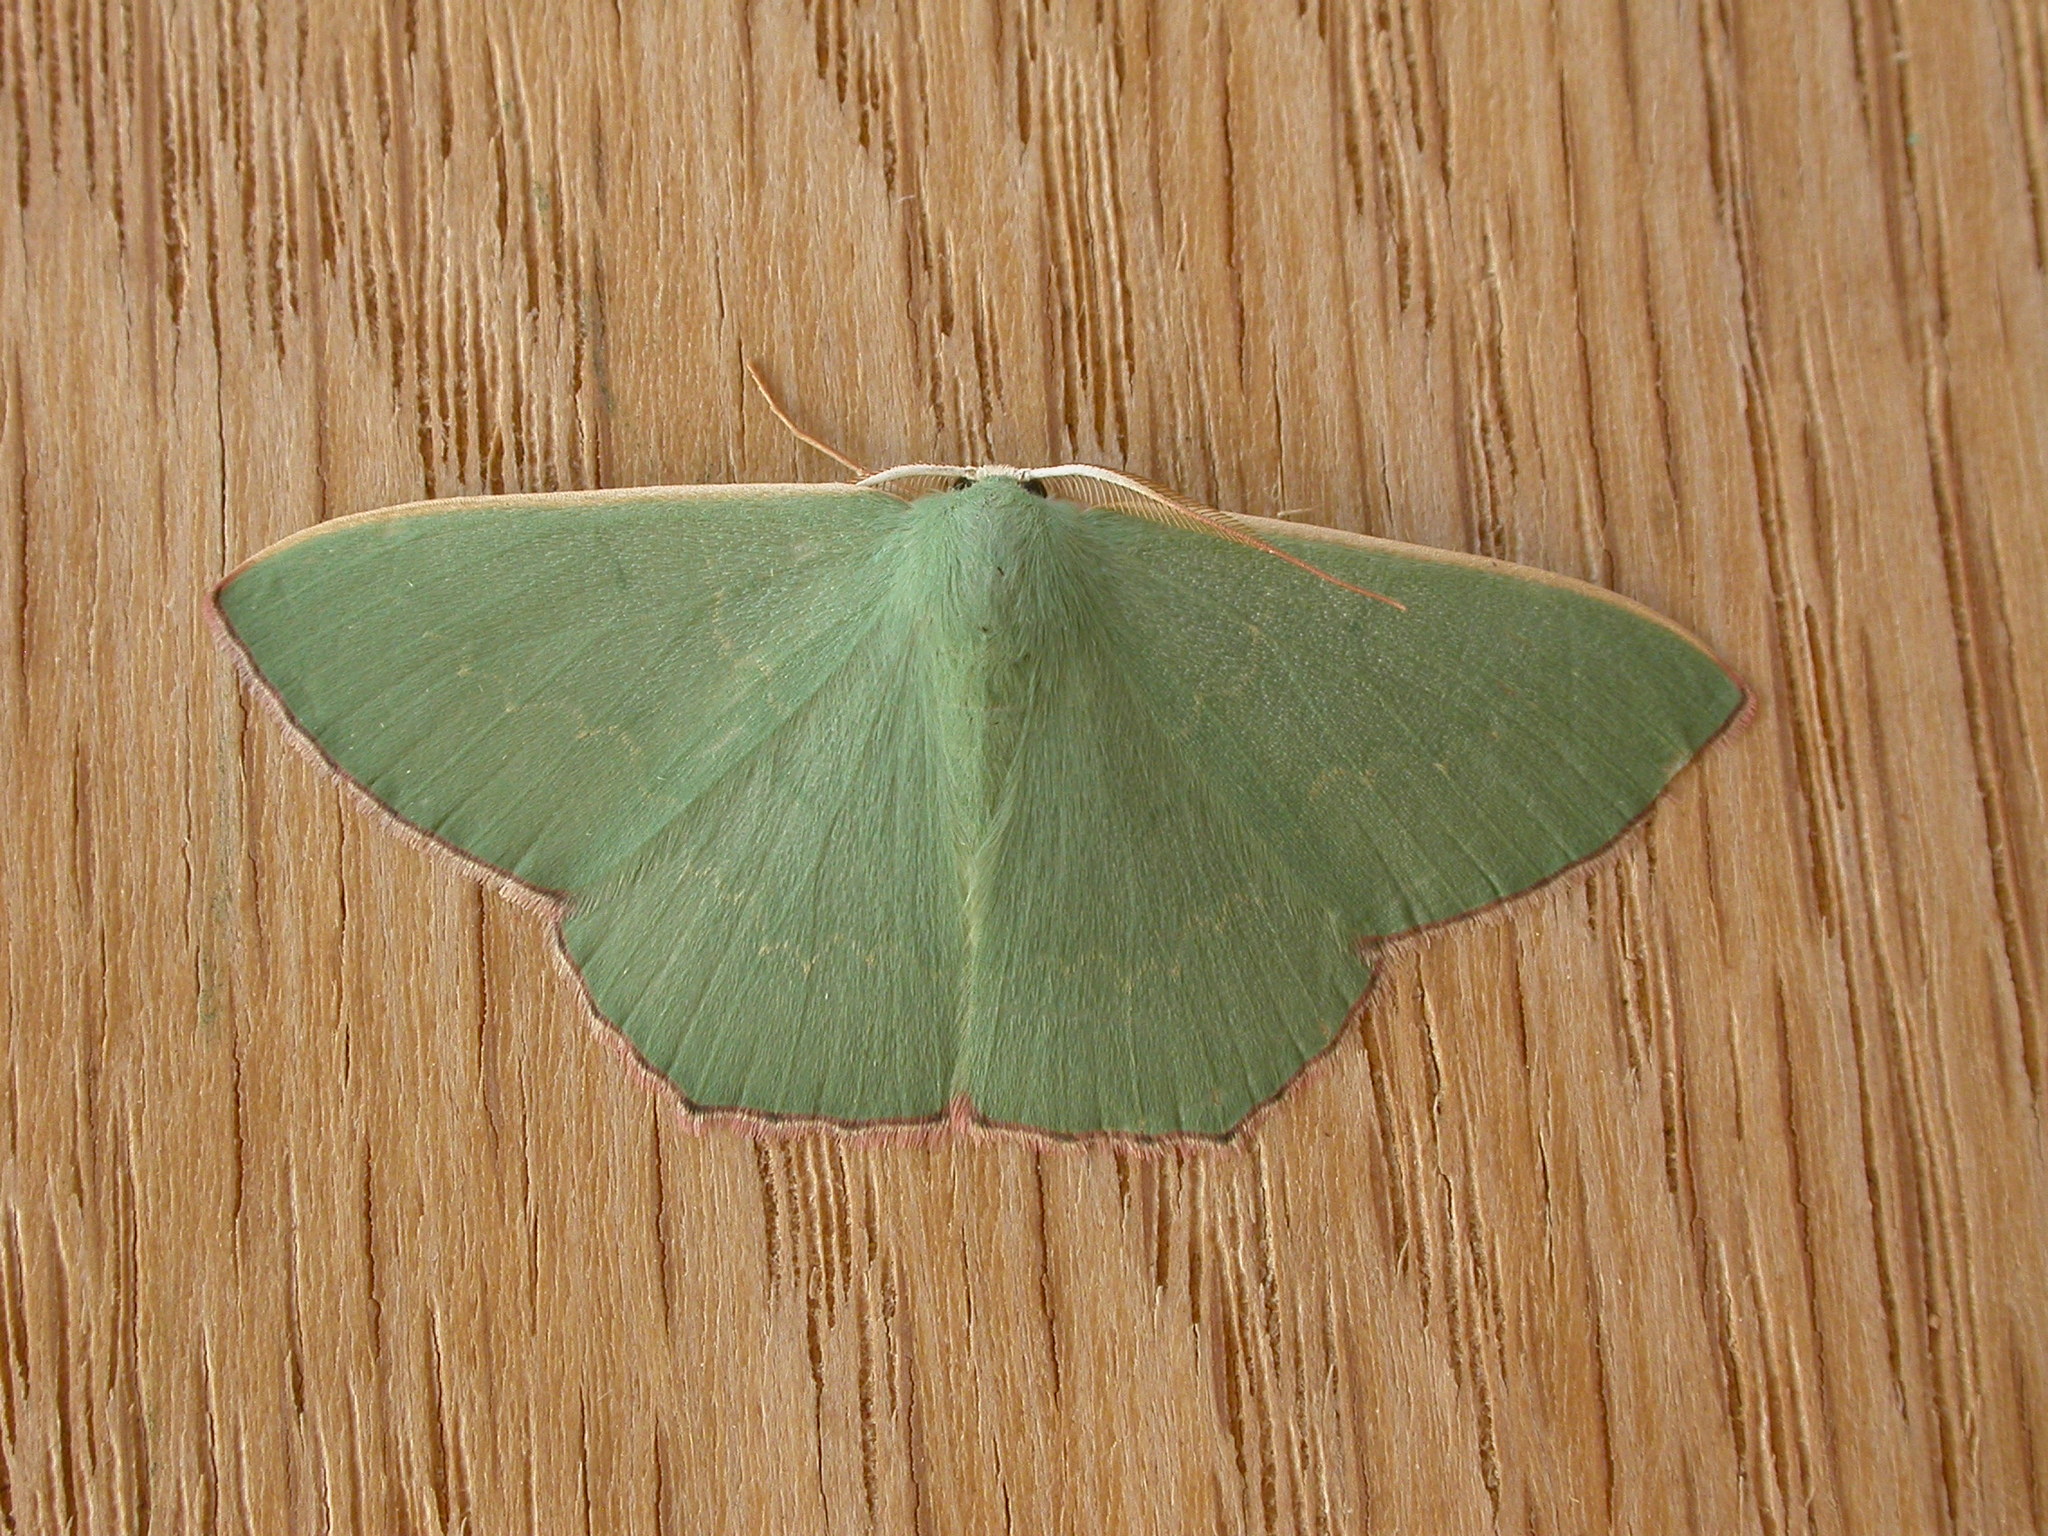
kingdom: Animalia
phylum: Arthropoda
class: Insecta
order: Lepidoptera
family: Geometridae
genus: Prasinocyma
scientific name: Prasinocyma semicrocea
